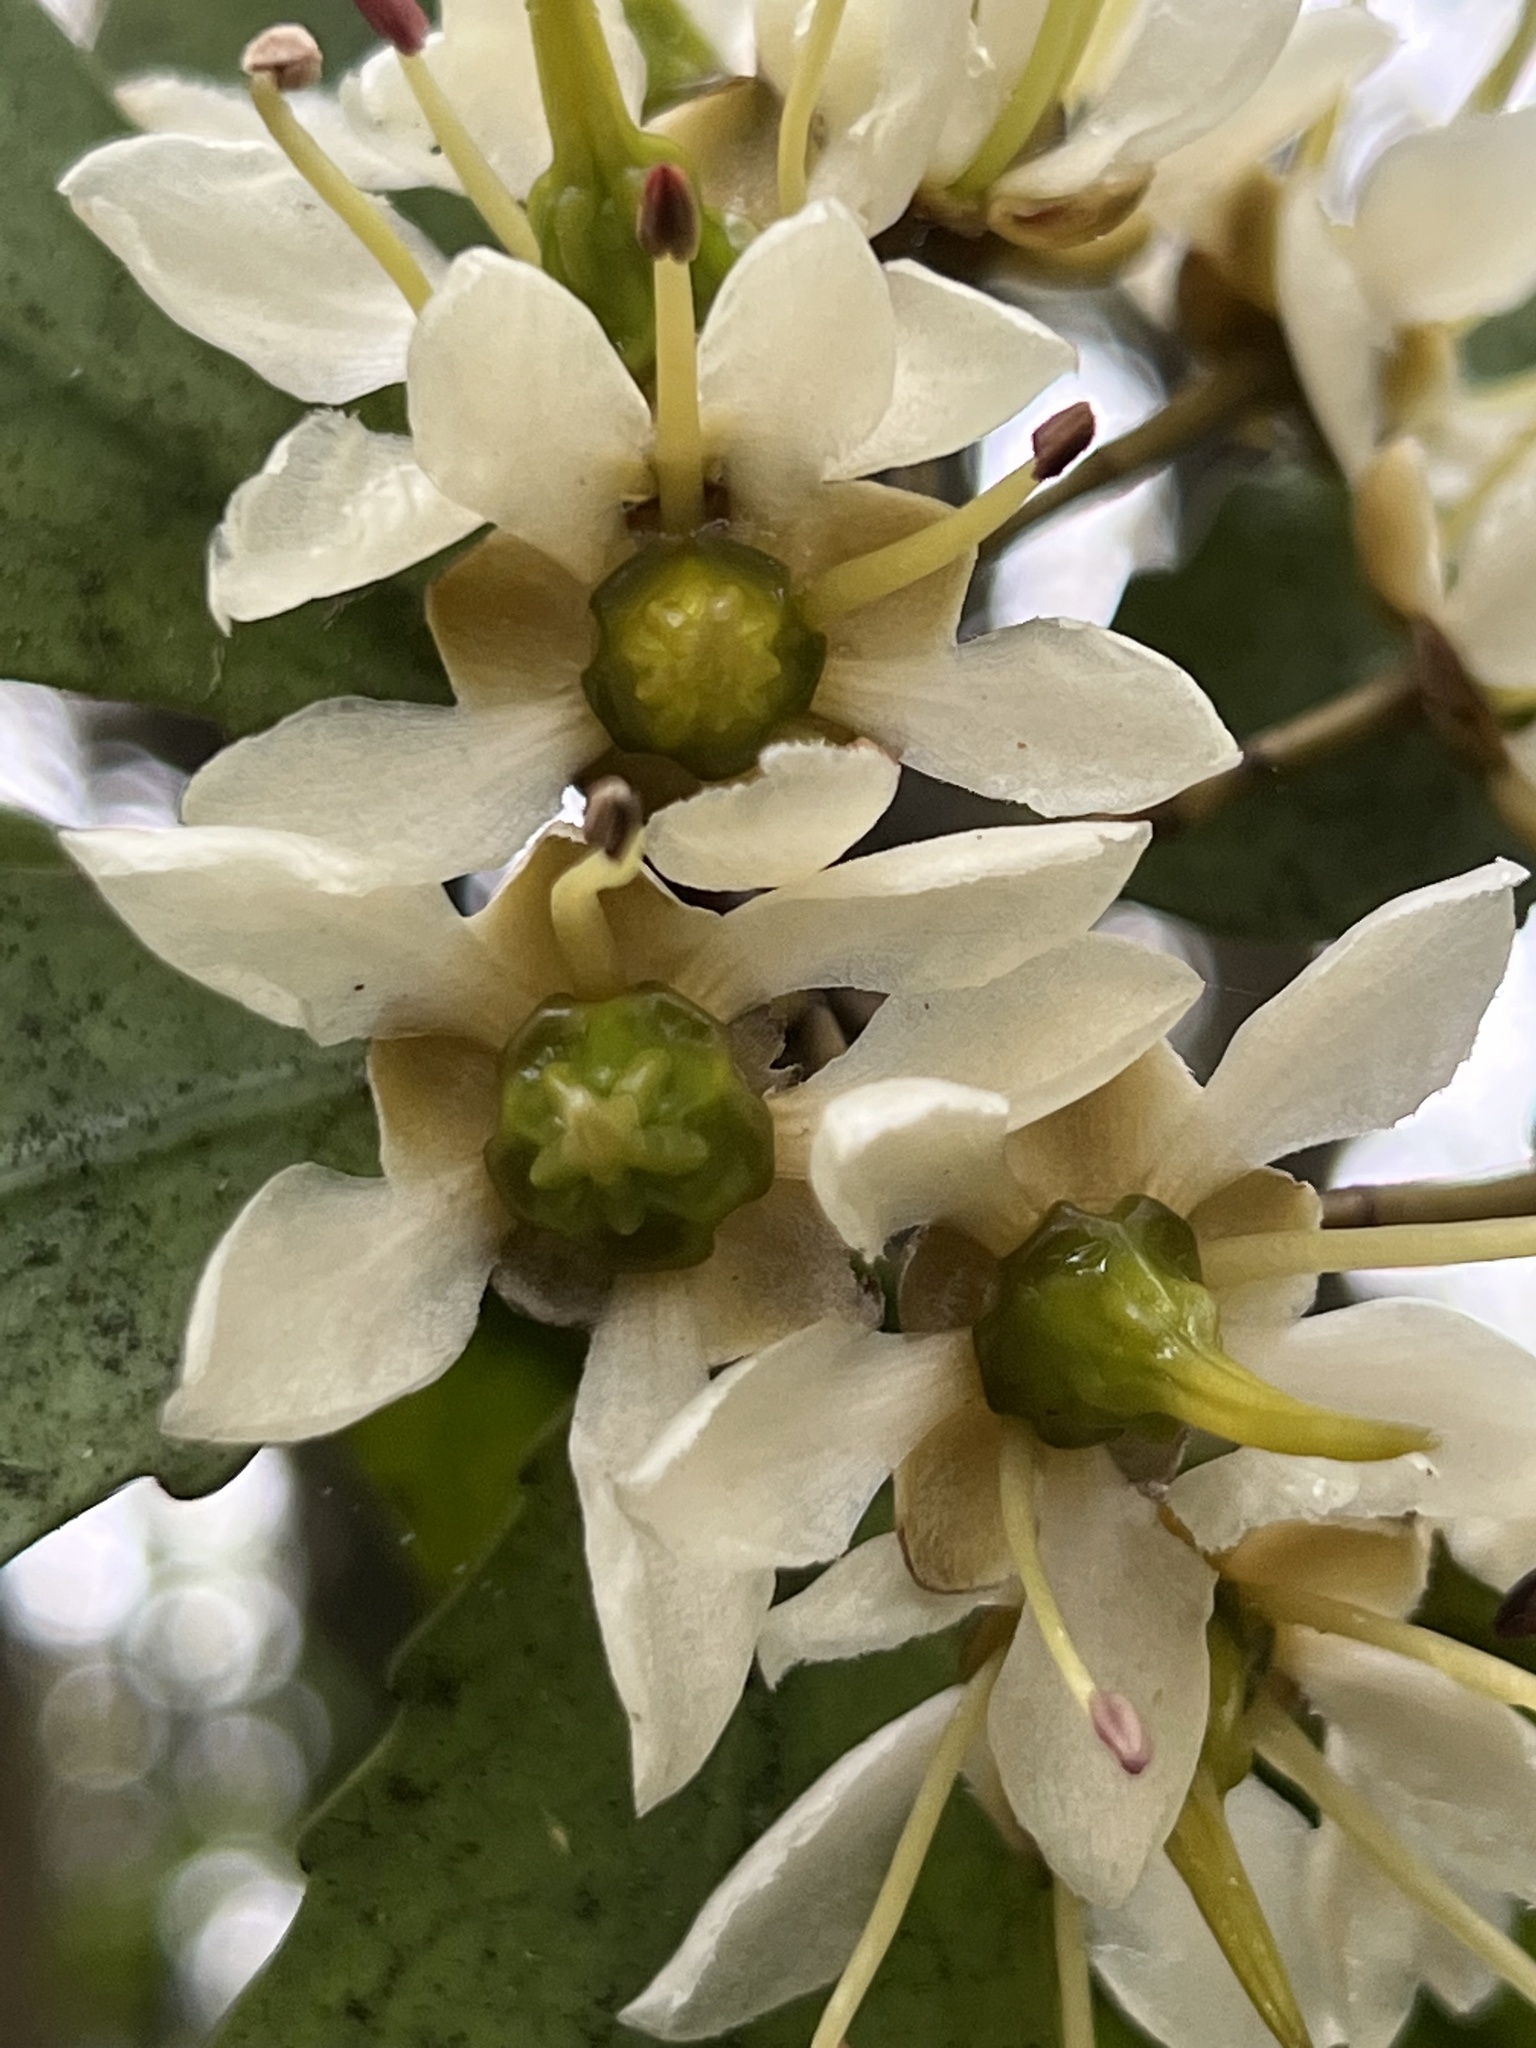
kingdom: Plantae
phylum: Tracheophyta
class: Magnoliopsida
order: Crossosomatales
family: Ixerbaceae
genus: Ixerba
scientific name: Ixerba brexioides
